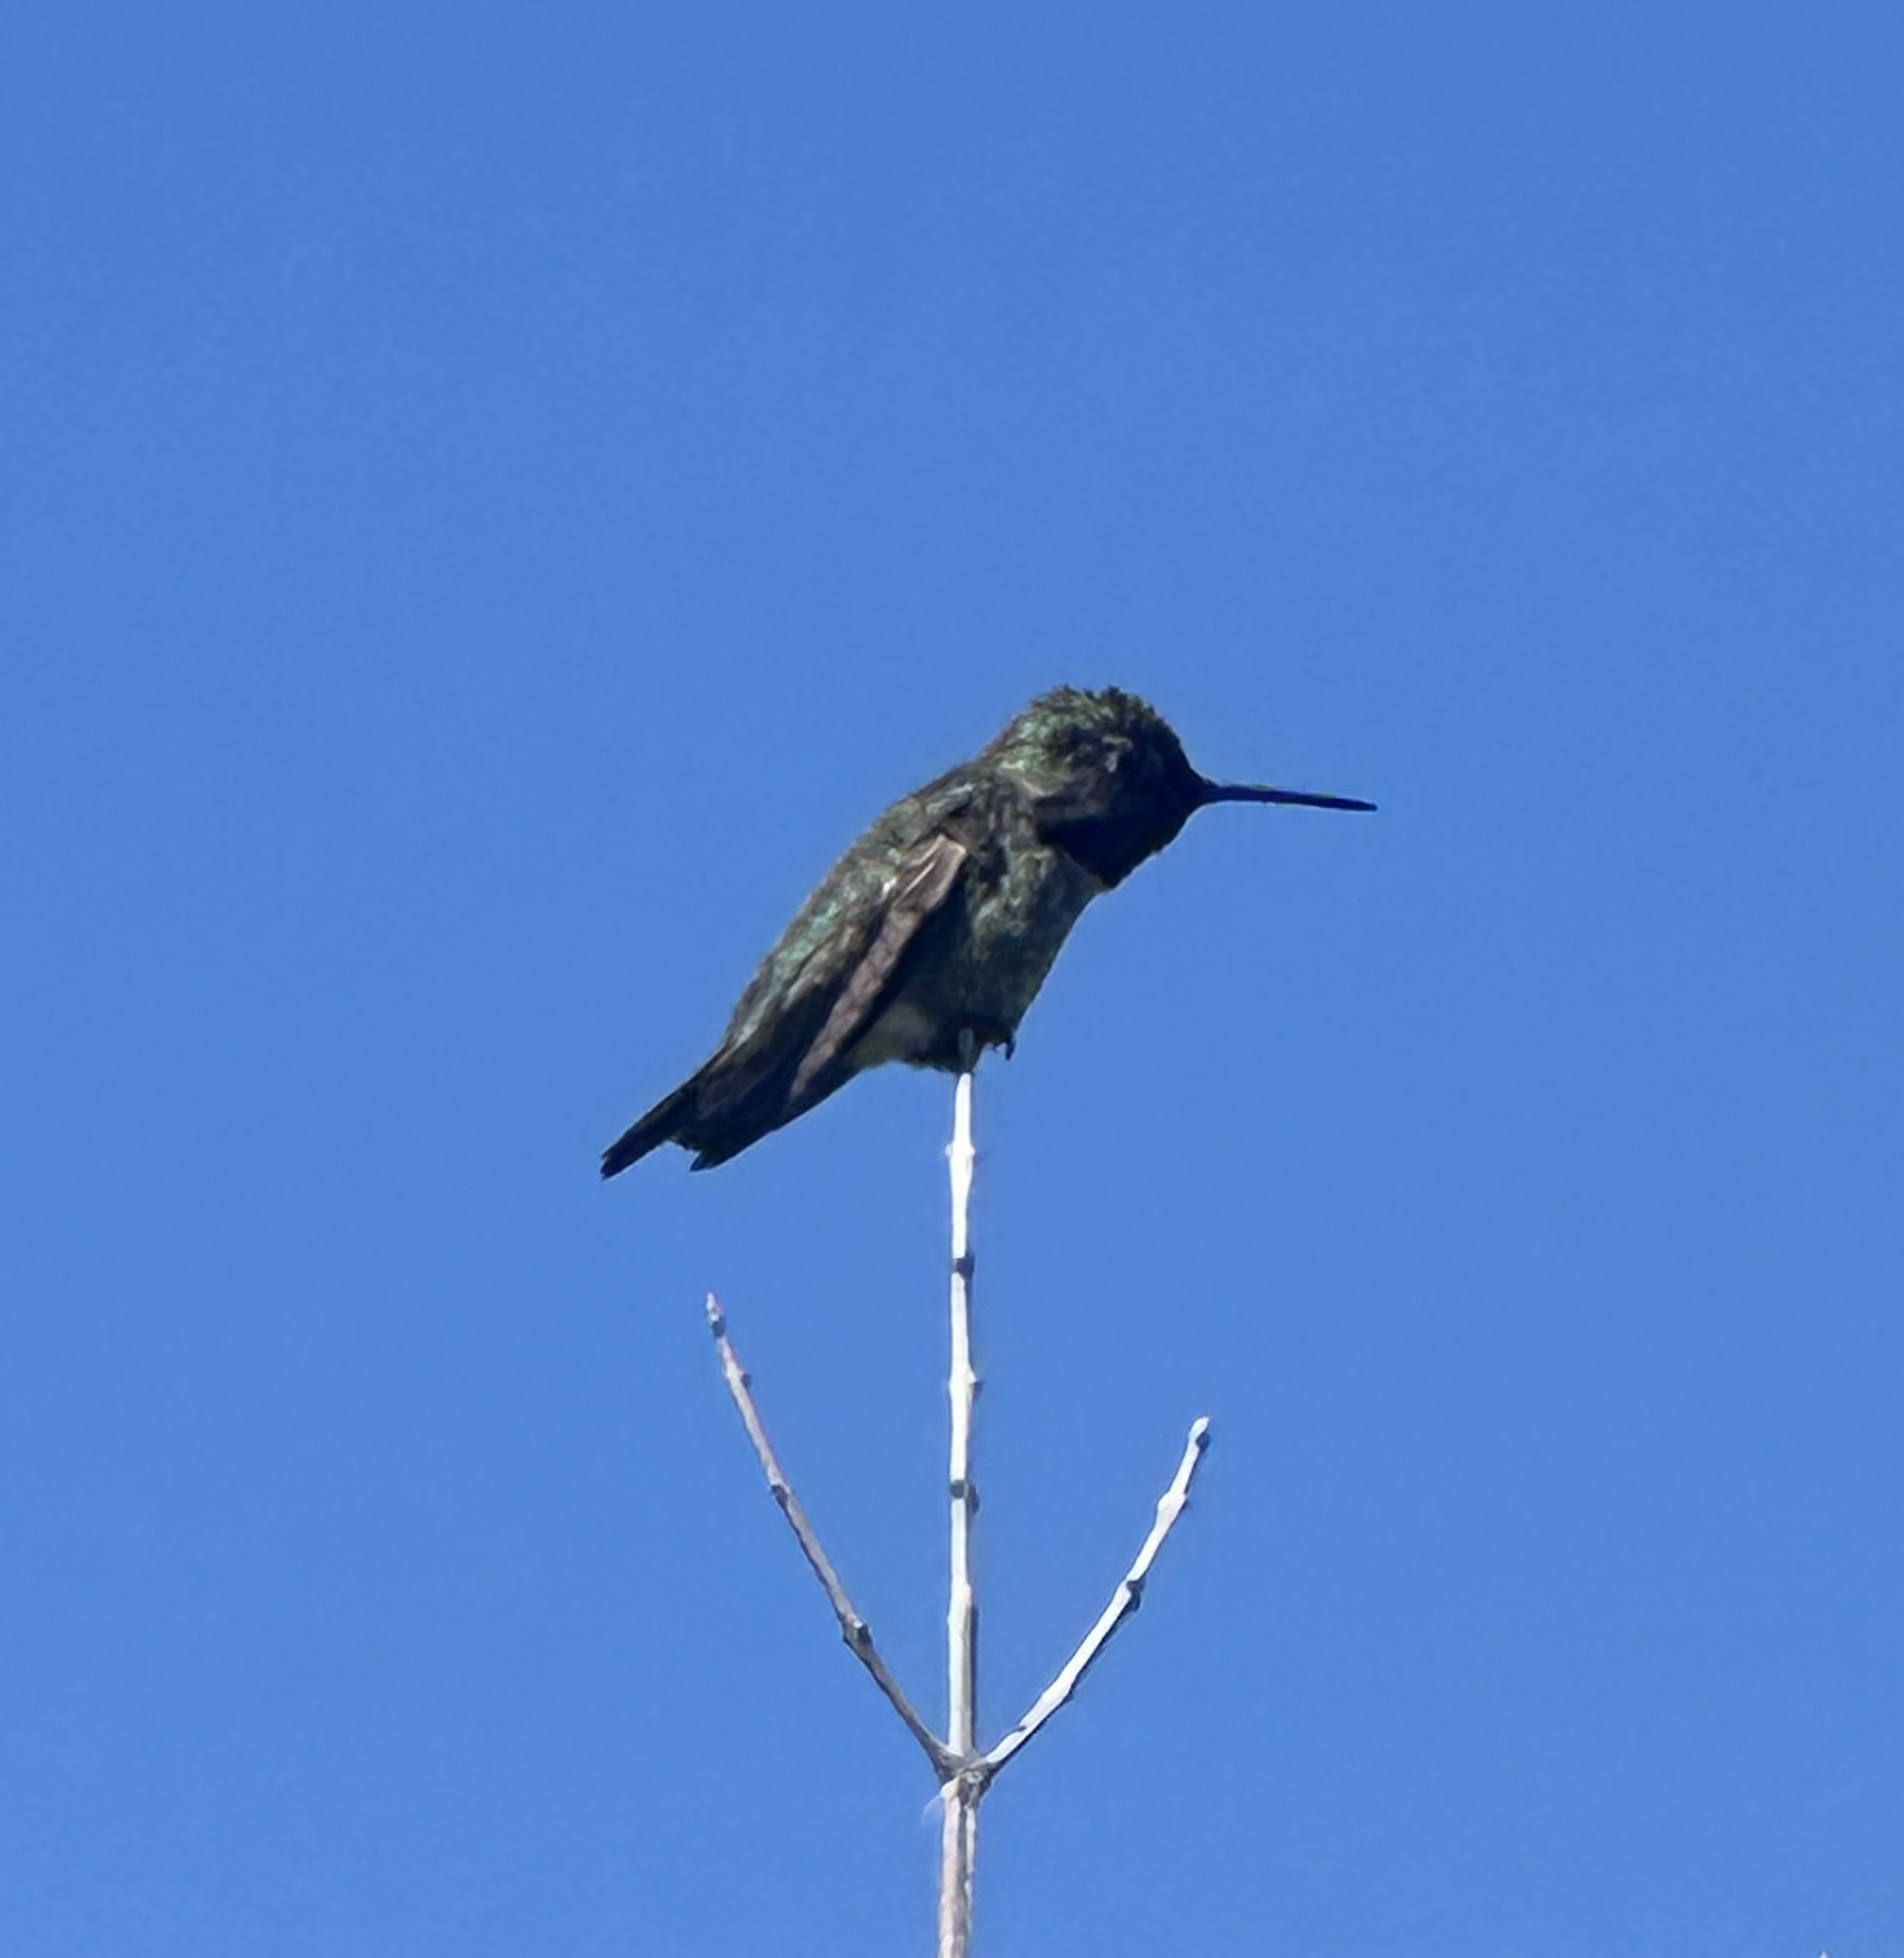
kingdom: Animalia
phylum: Chordata
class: Aves
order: Apodiformes
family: Trochilidae
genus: Calypte
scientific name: Calypte anna
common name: Anna's hummingbird
